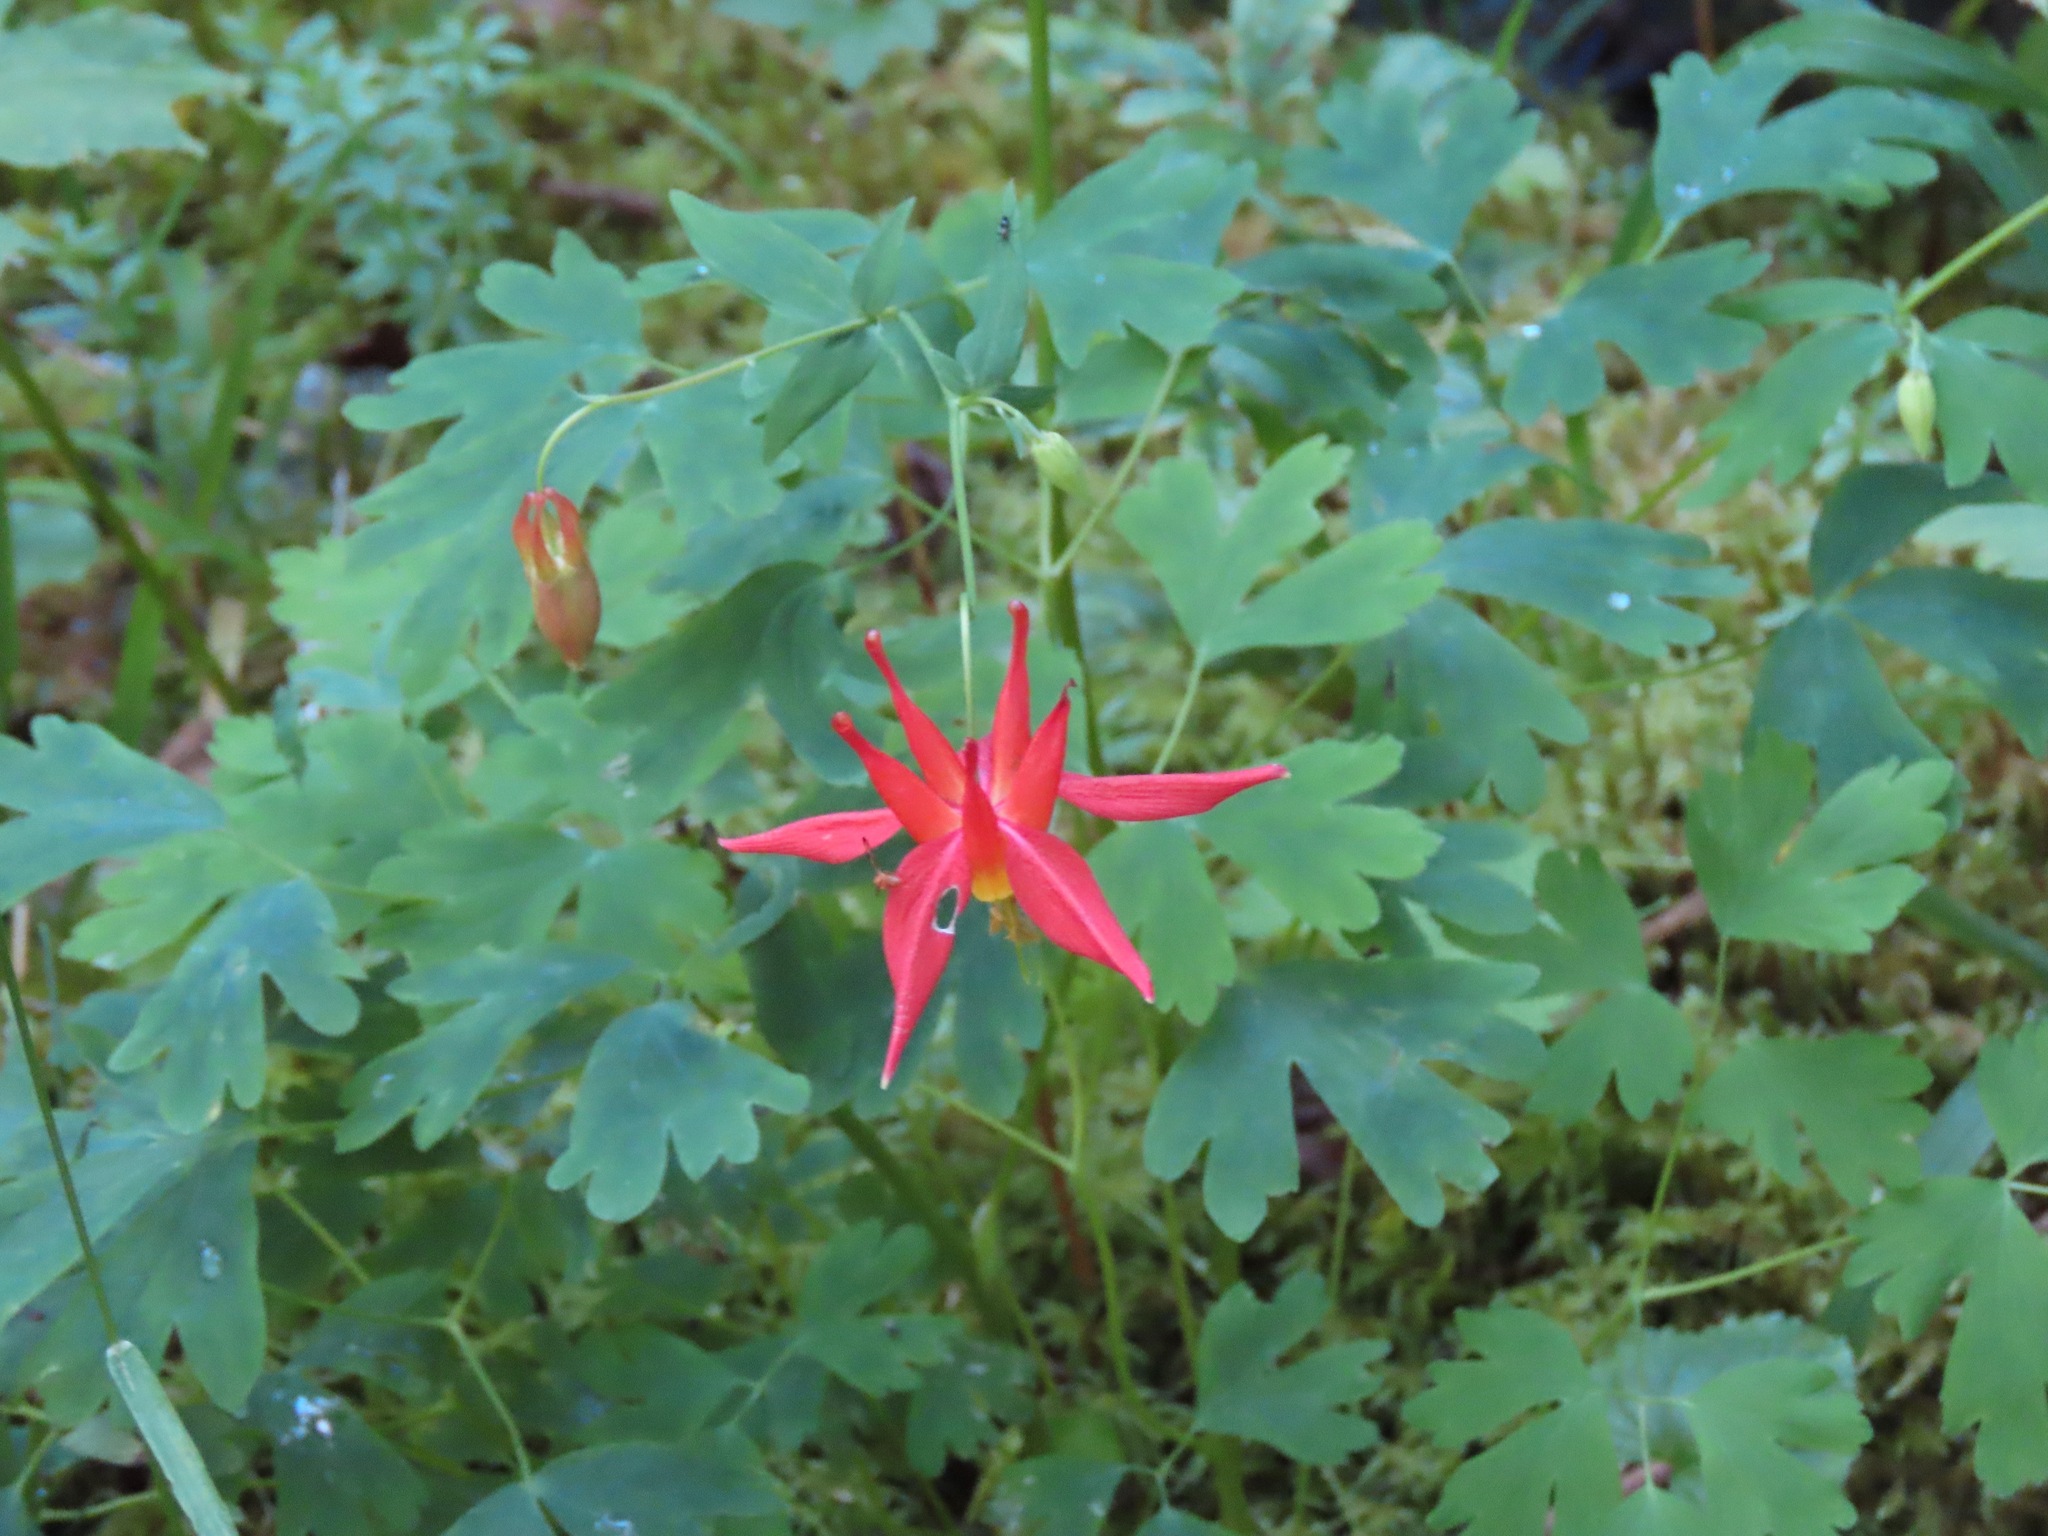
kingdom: Plantae
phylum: Tracheophyta
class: Magnoliopsida
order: Ranunculales
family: Ranunculaceae
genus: Aquilegia
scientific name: Aquilegia formosa
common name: Sitka columbine
